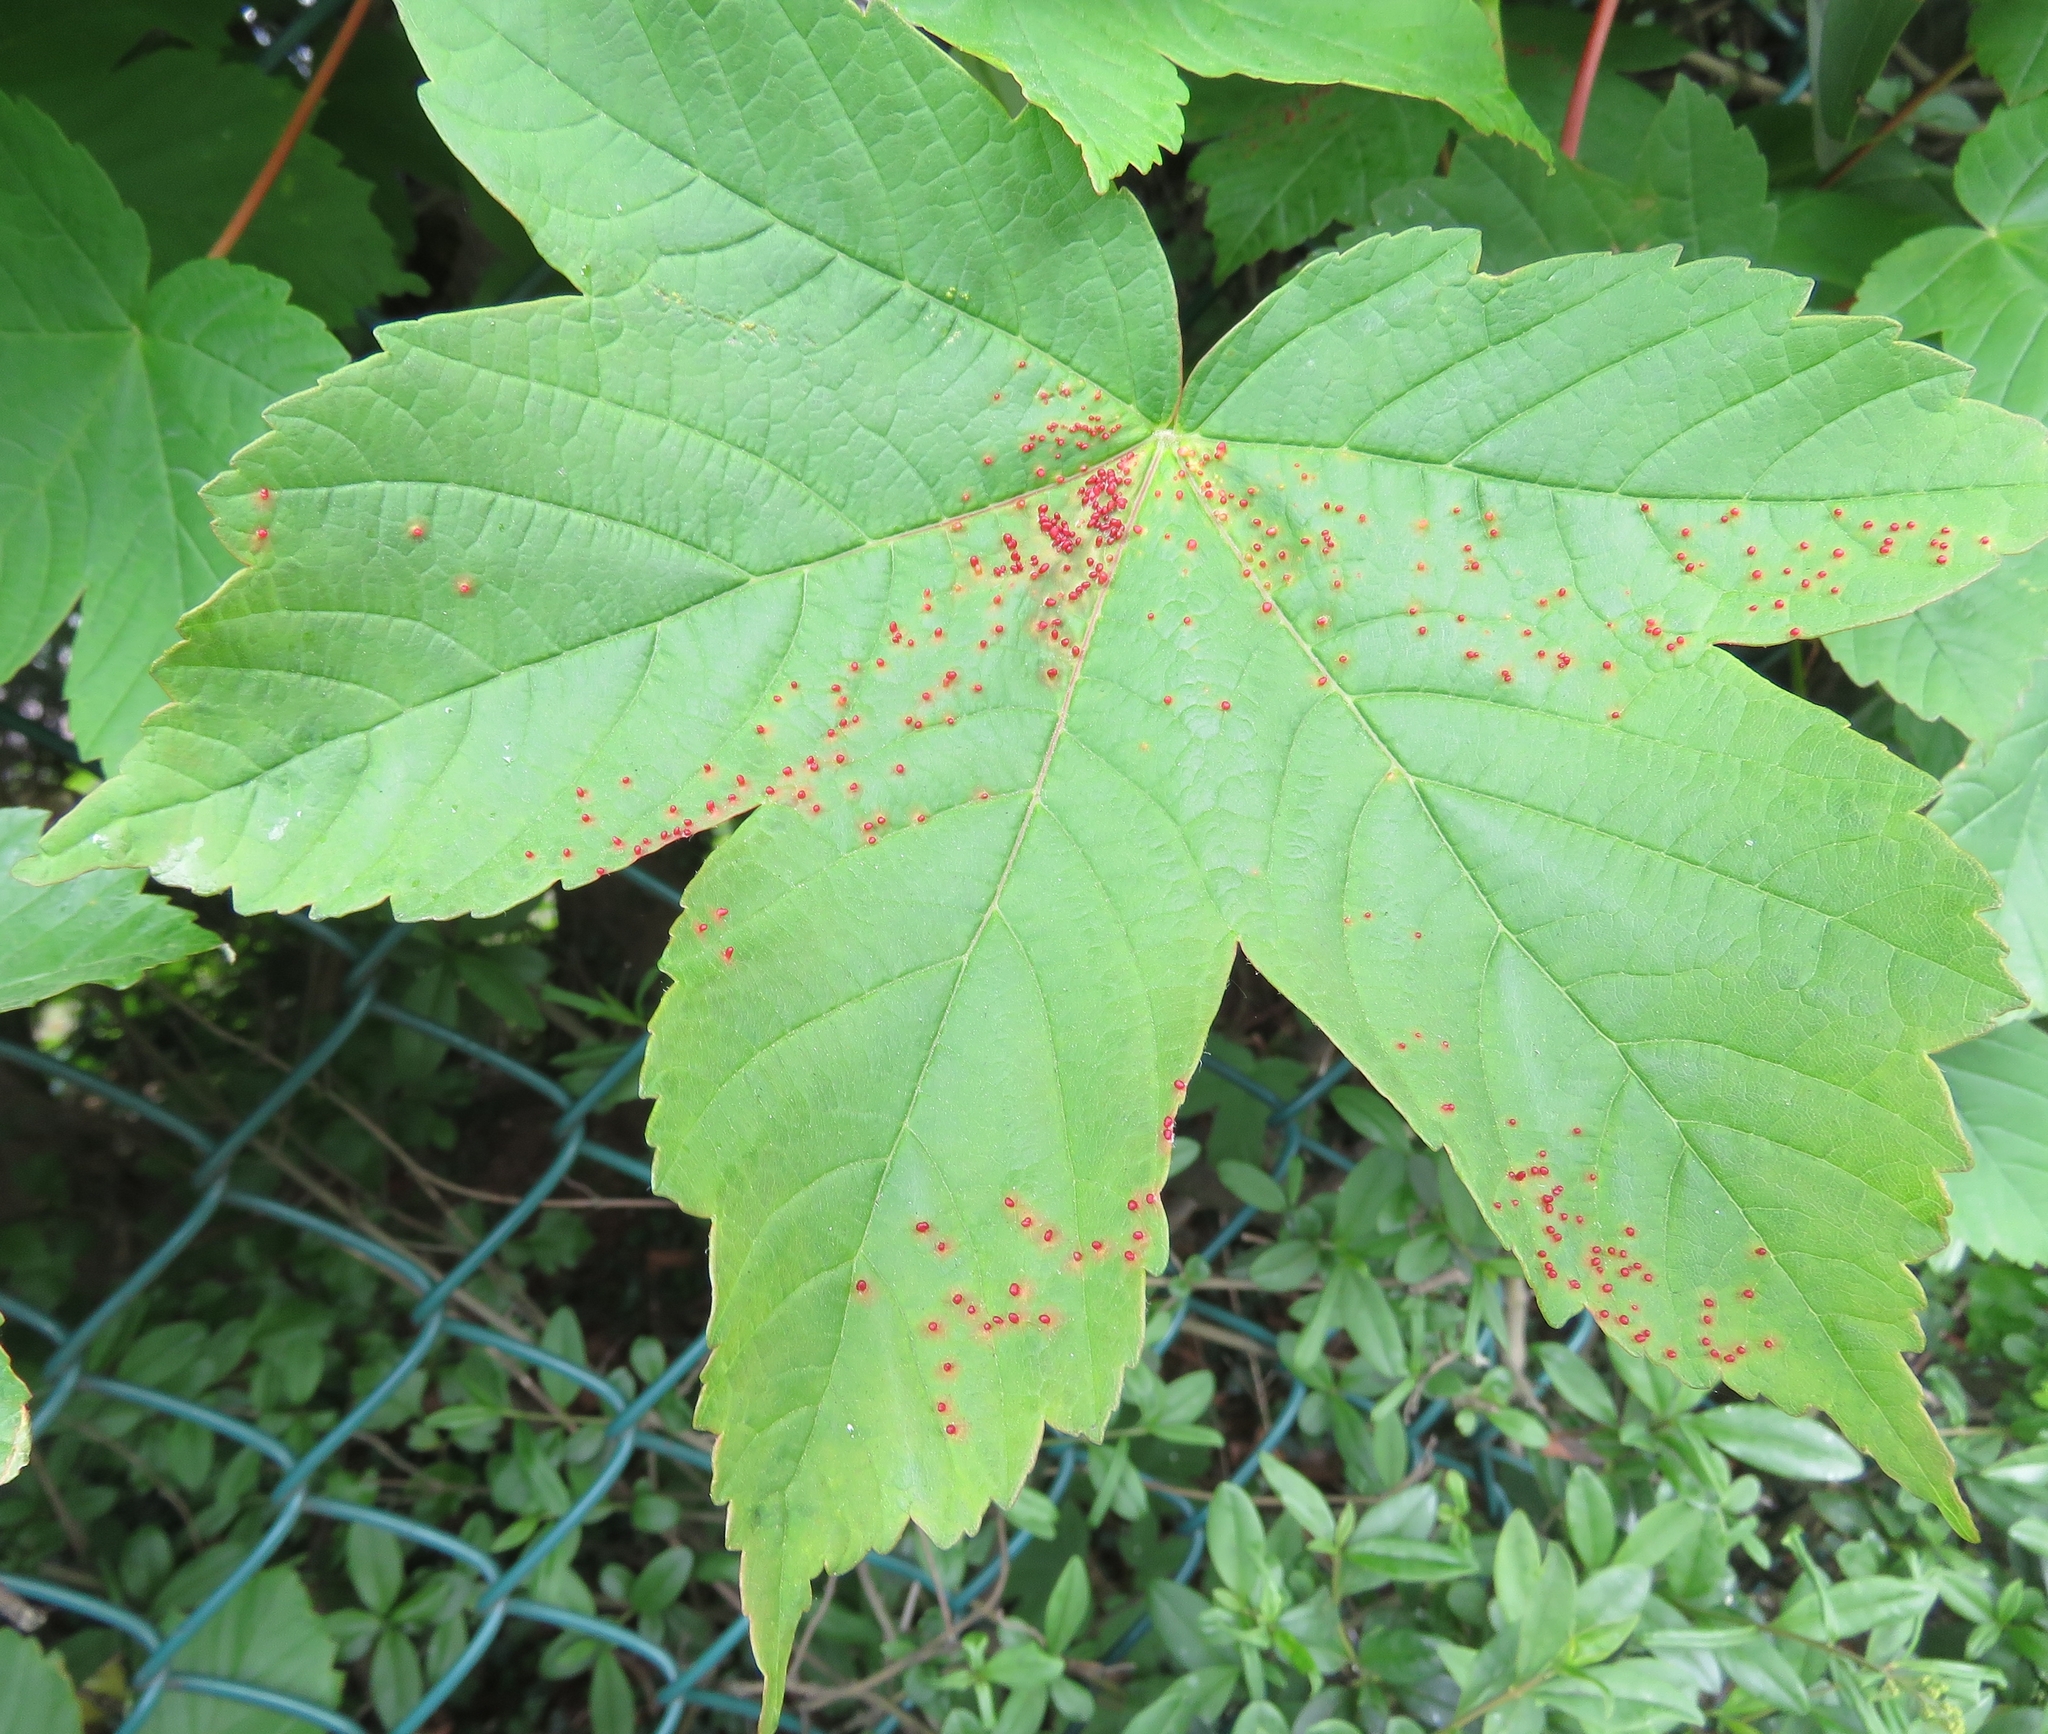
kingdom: Animalia
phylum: Arthropoda
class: Arachnida
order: Trombidiformes
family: Eriophyidae
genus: Aceria
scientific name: Aceria cephaloneus
